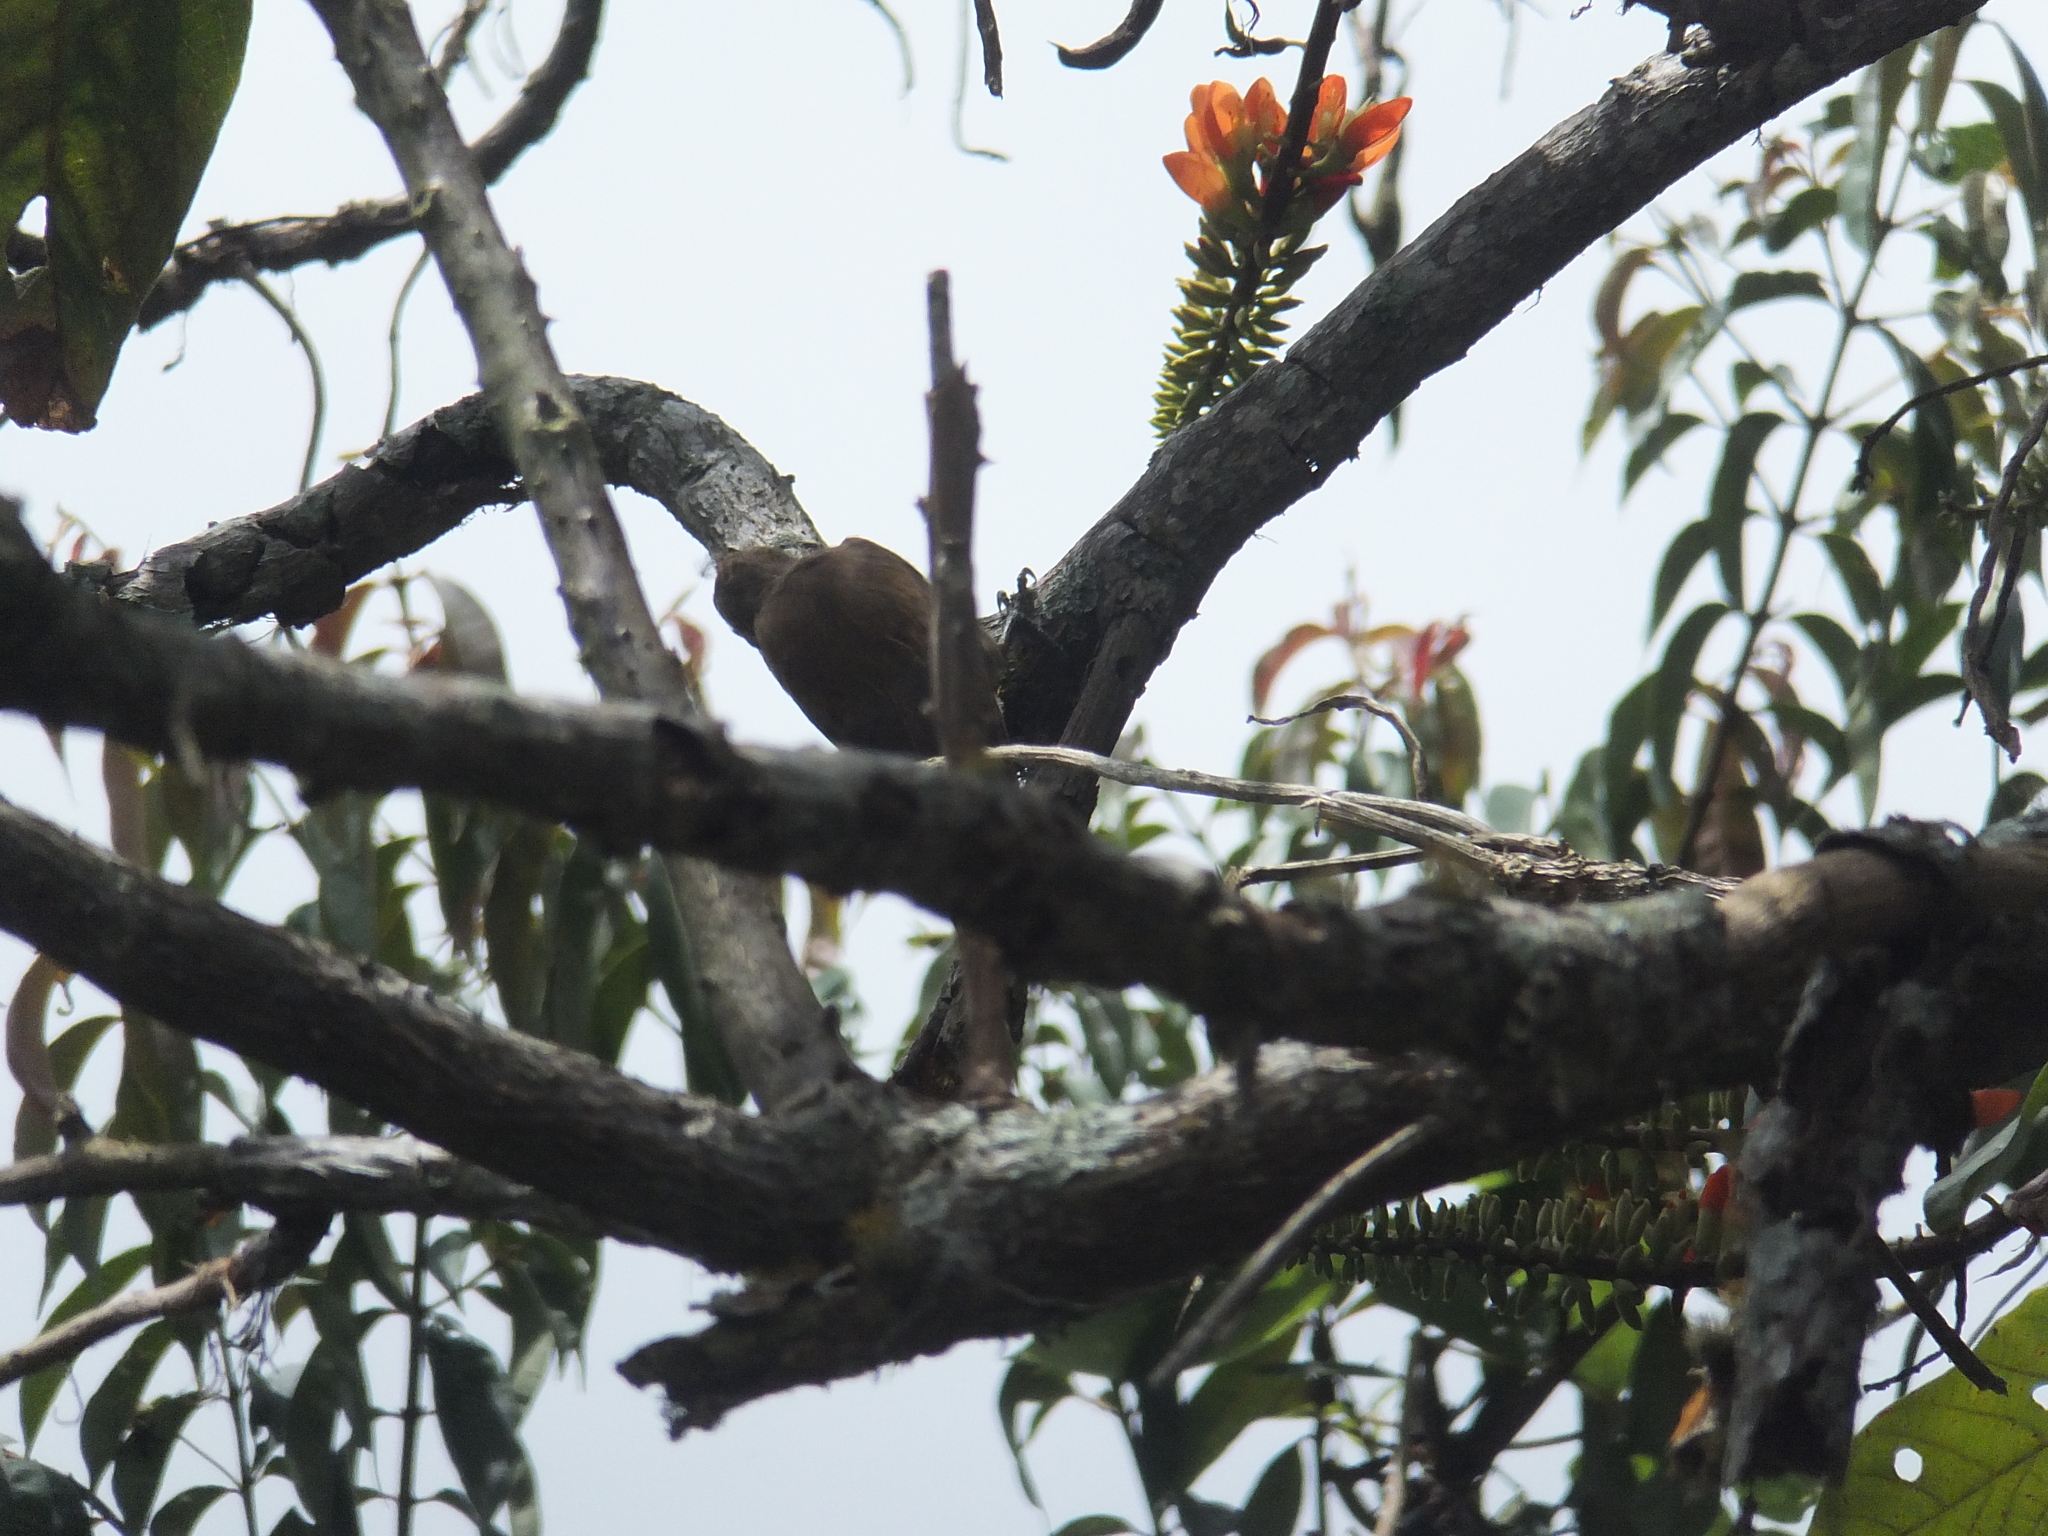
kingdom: Animalia
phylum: Chordata
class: Aves
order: Piciformes
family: Picidae
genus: Leuconotopicus
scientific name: Leuconotopicus fumigatus
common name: Smoky-brown woodpecker
